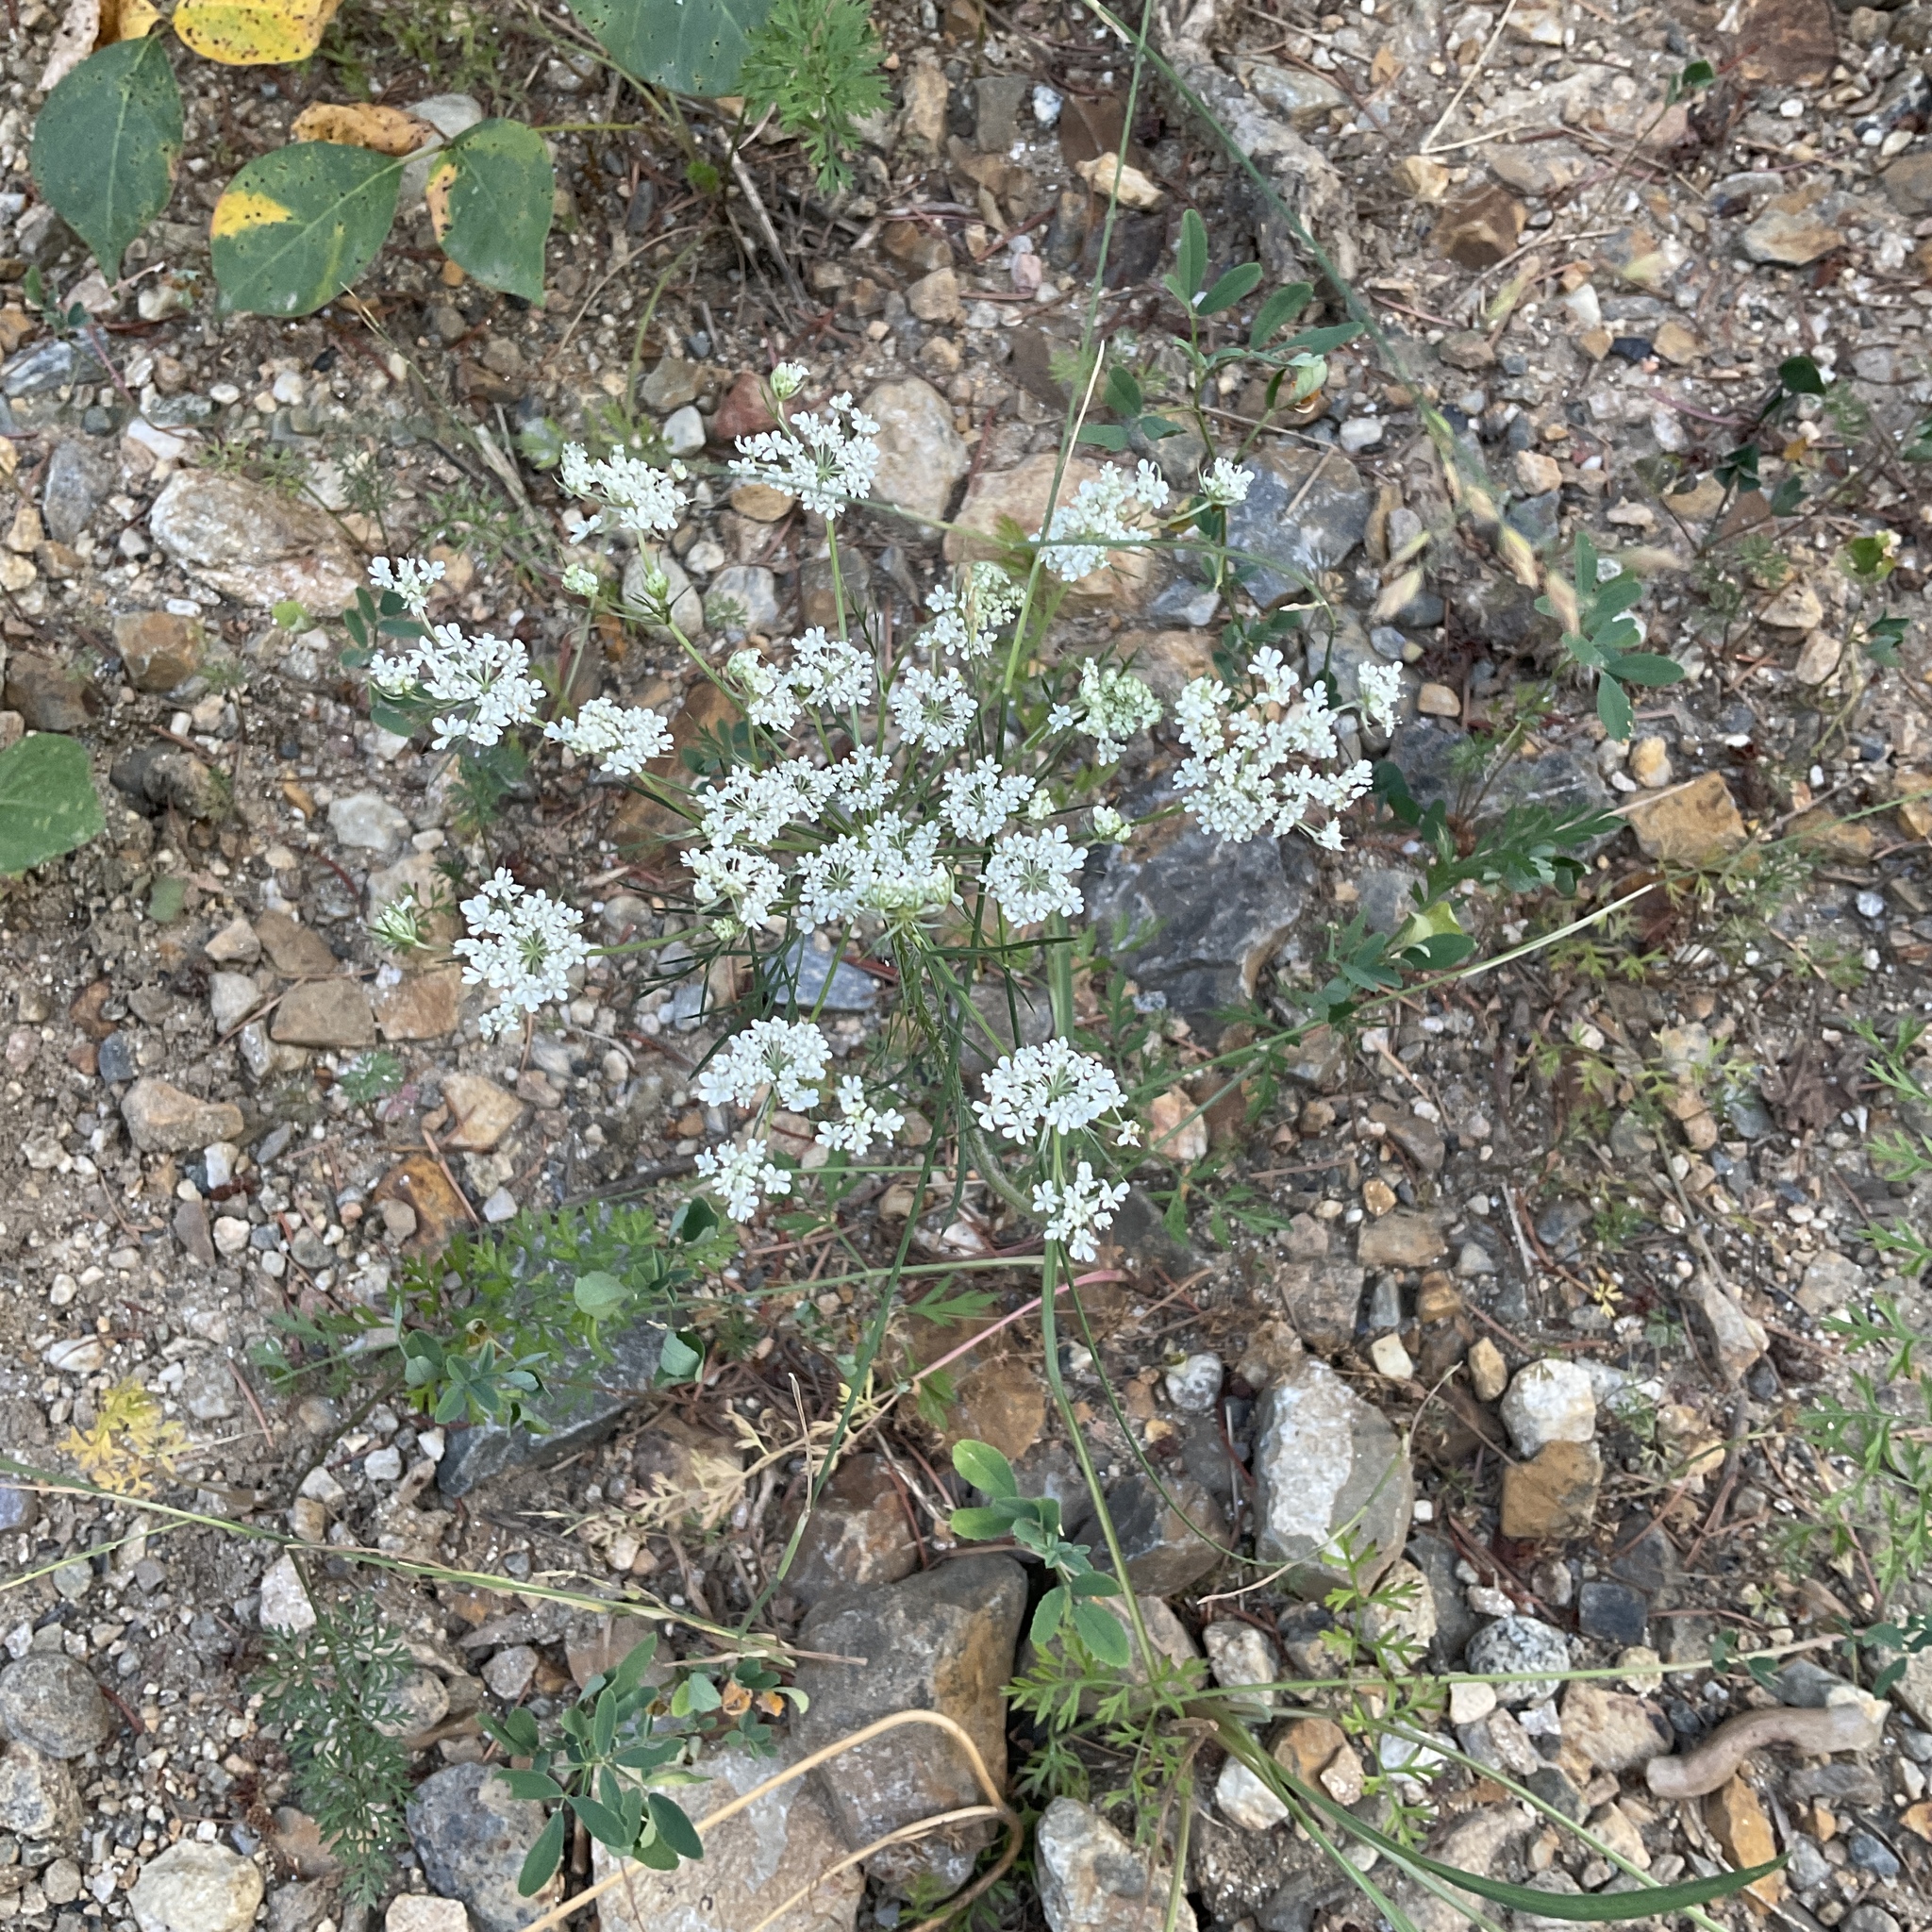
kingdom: Plantae
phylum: Tracheophyta
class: Magnoliopsida
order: Apiales
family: Apiaceae
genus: Daucus
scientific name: Daucus carota
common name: Wild carrot
